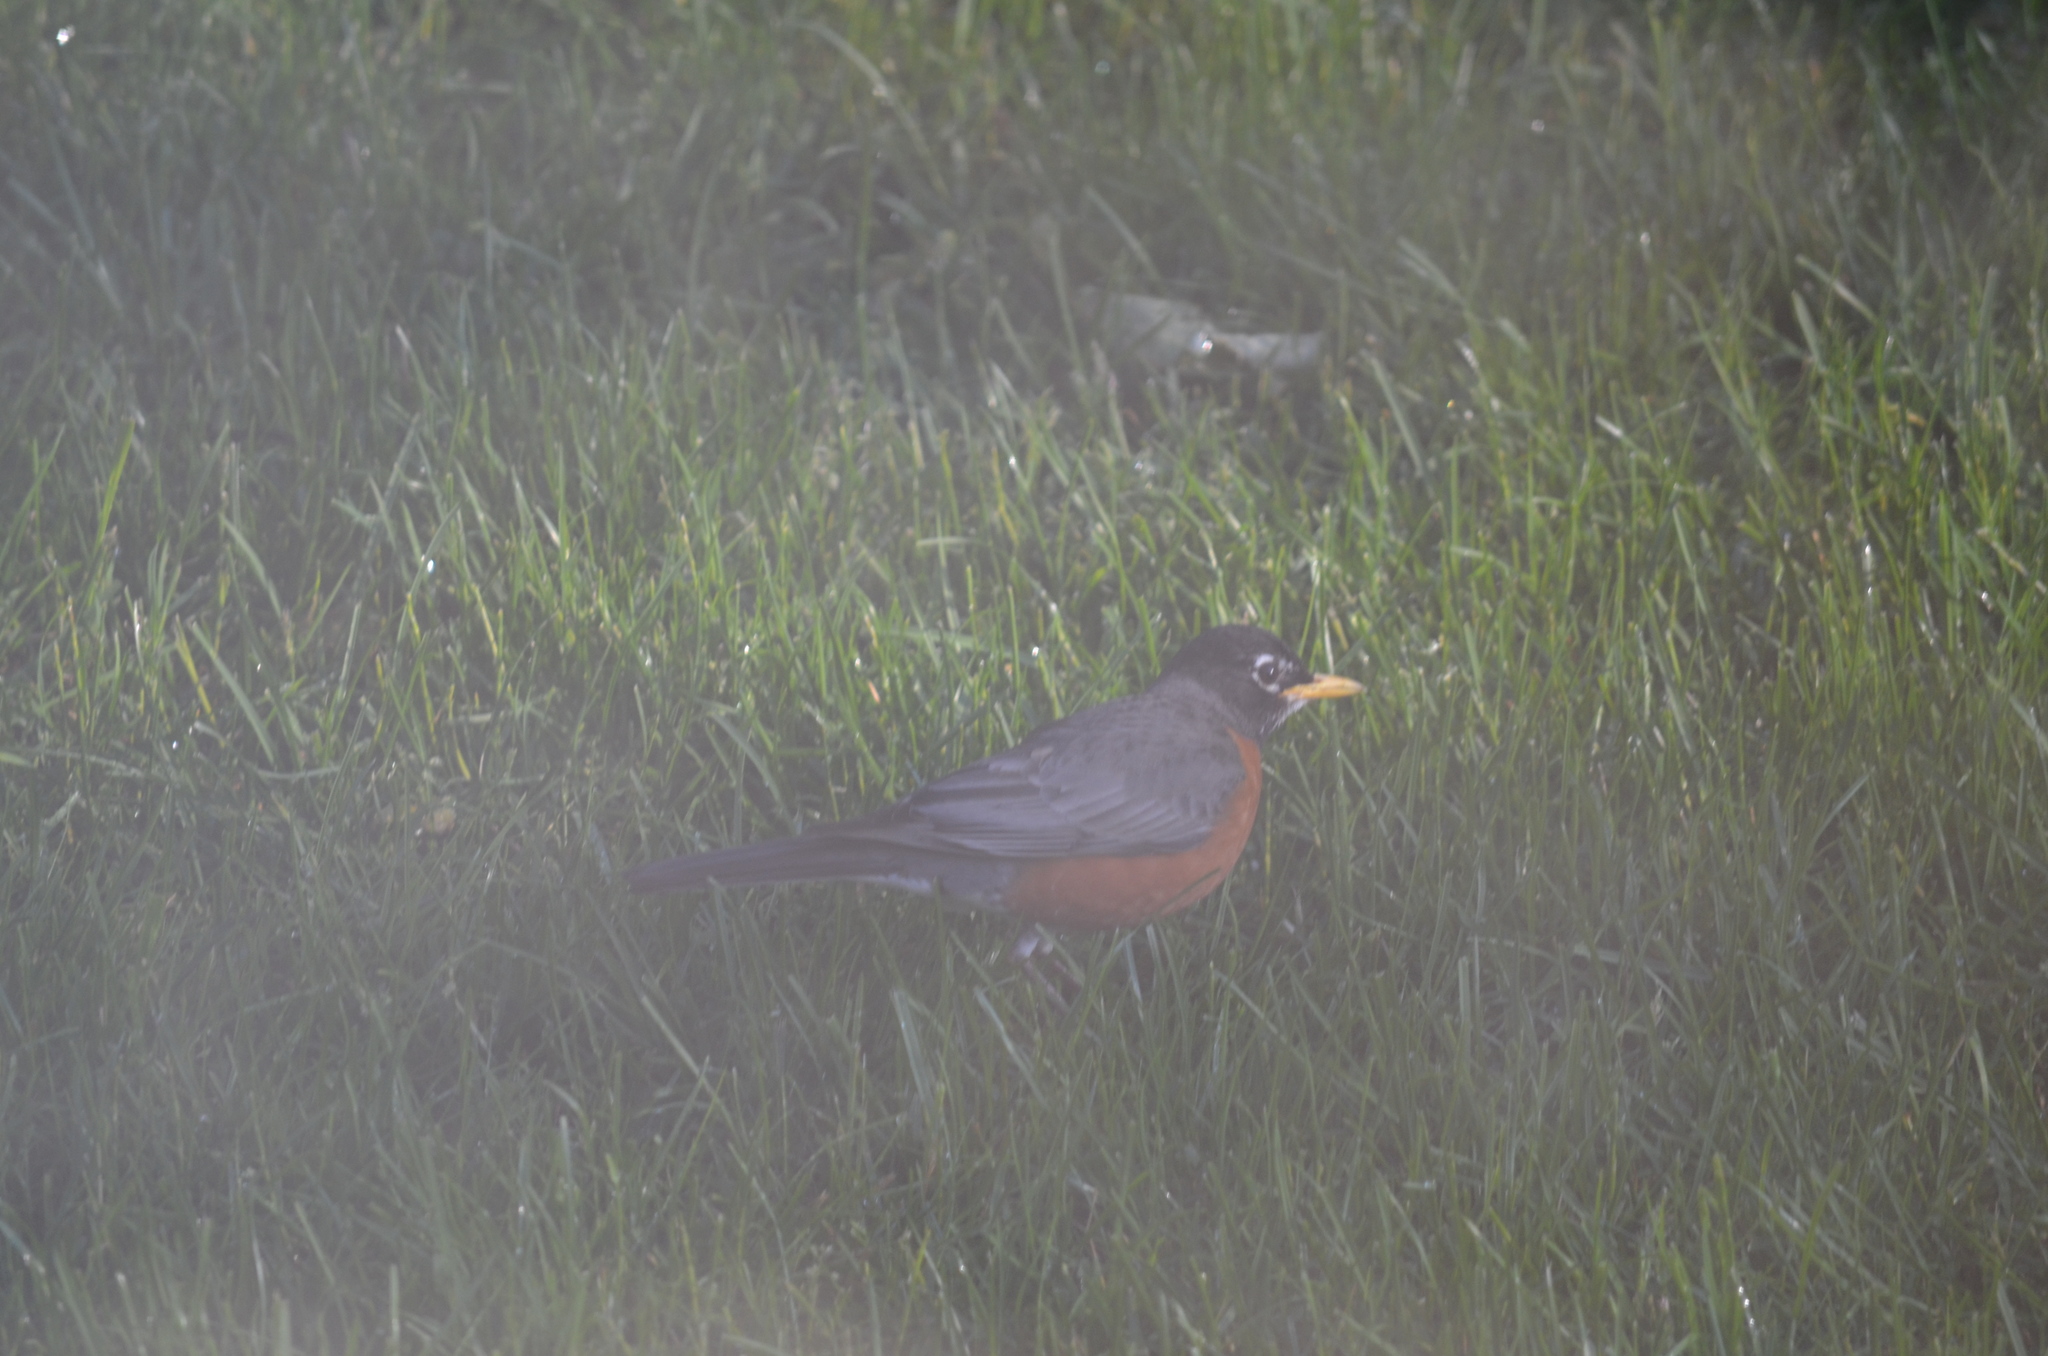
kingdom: Animalia
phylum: Chordata
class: Aves
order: Passeriformes
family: Turdidae
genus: Turdus
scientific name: Turdus migratorius
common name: American robin
